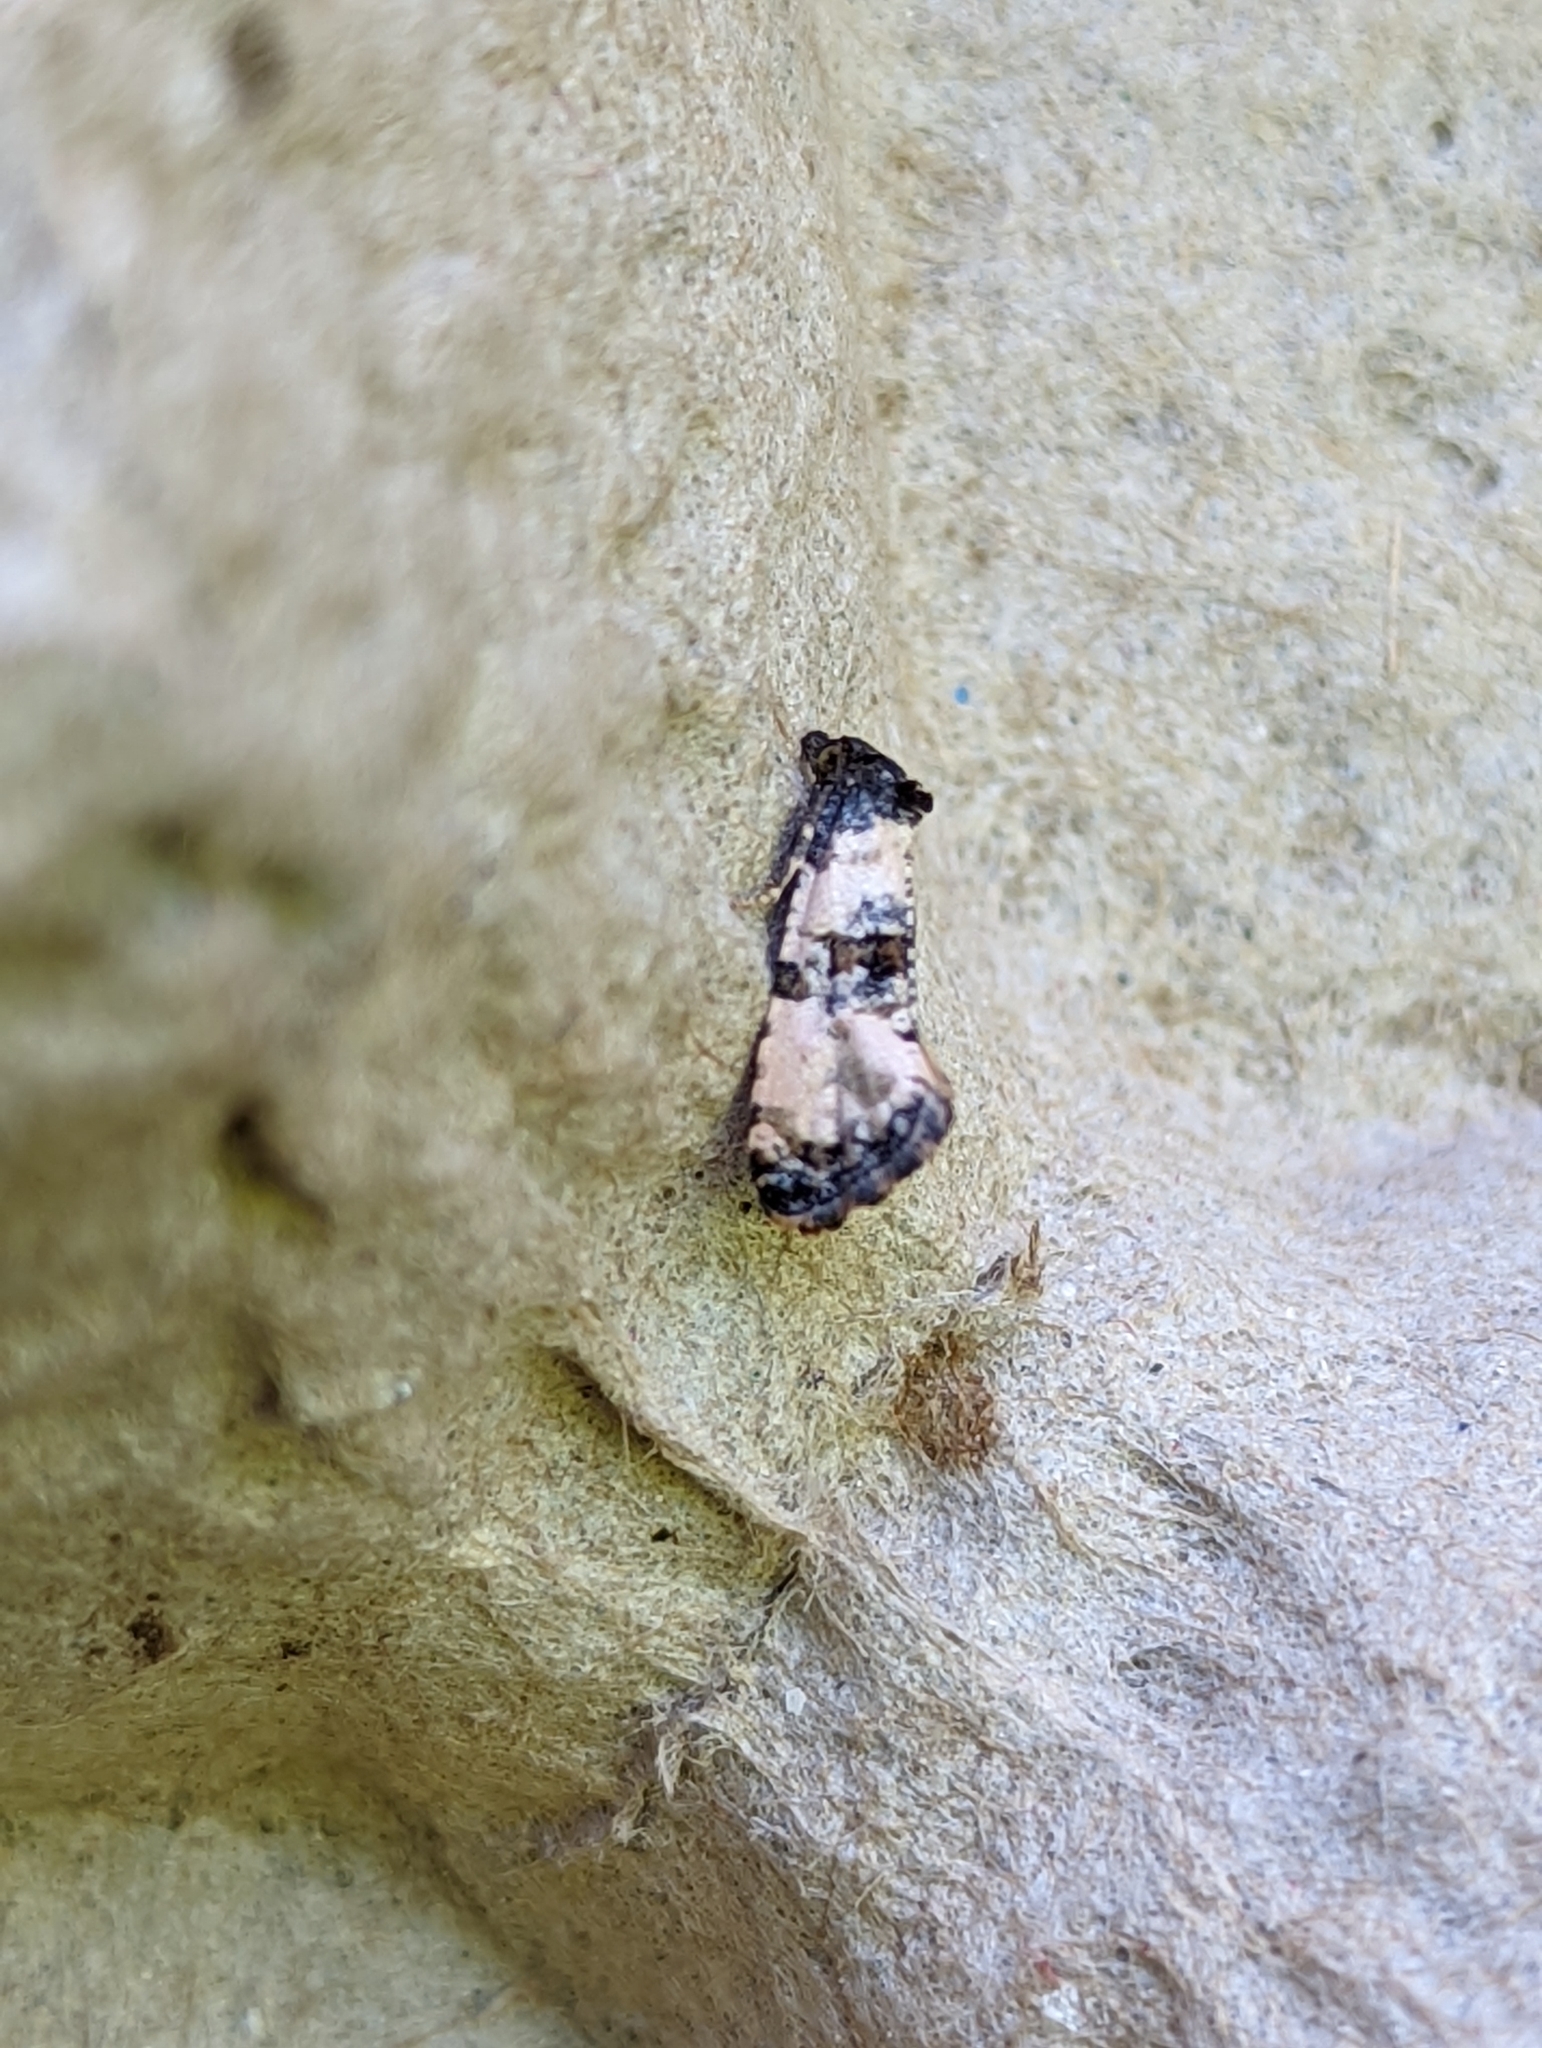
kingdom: Animalia
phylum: Arthropoda
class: Insecta
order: Lepidoptera
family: Tortricidae
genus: Cochylis
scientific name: Cochylis atricapitana
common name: Tortricid moth
